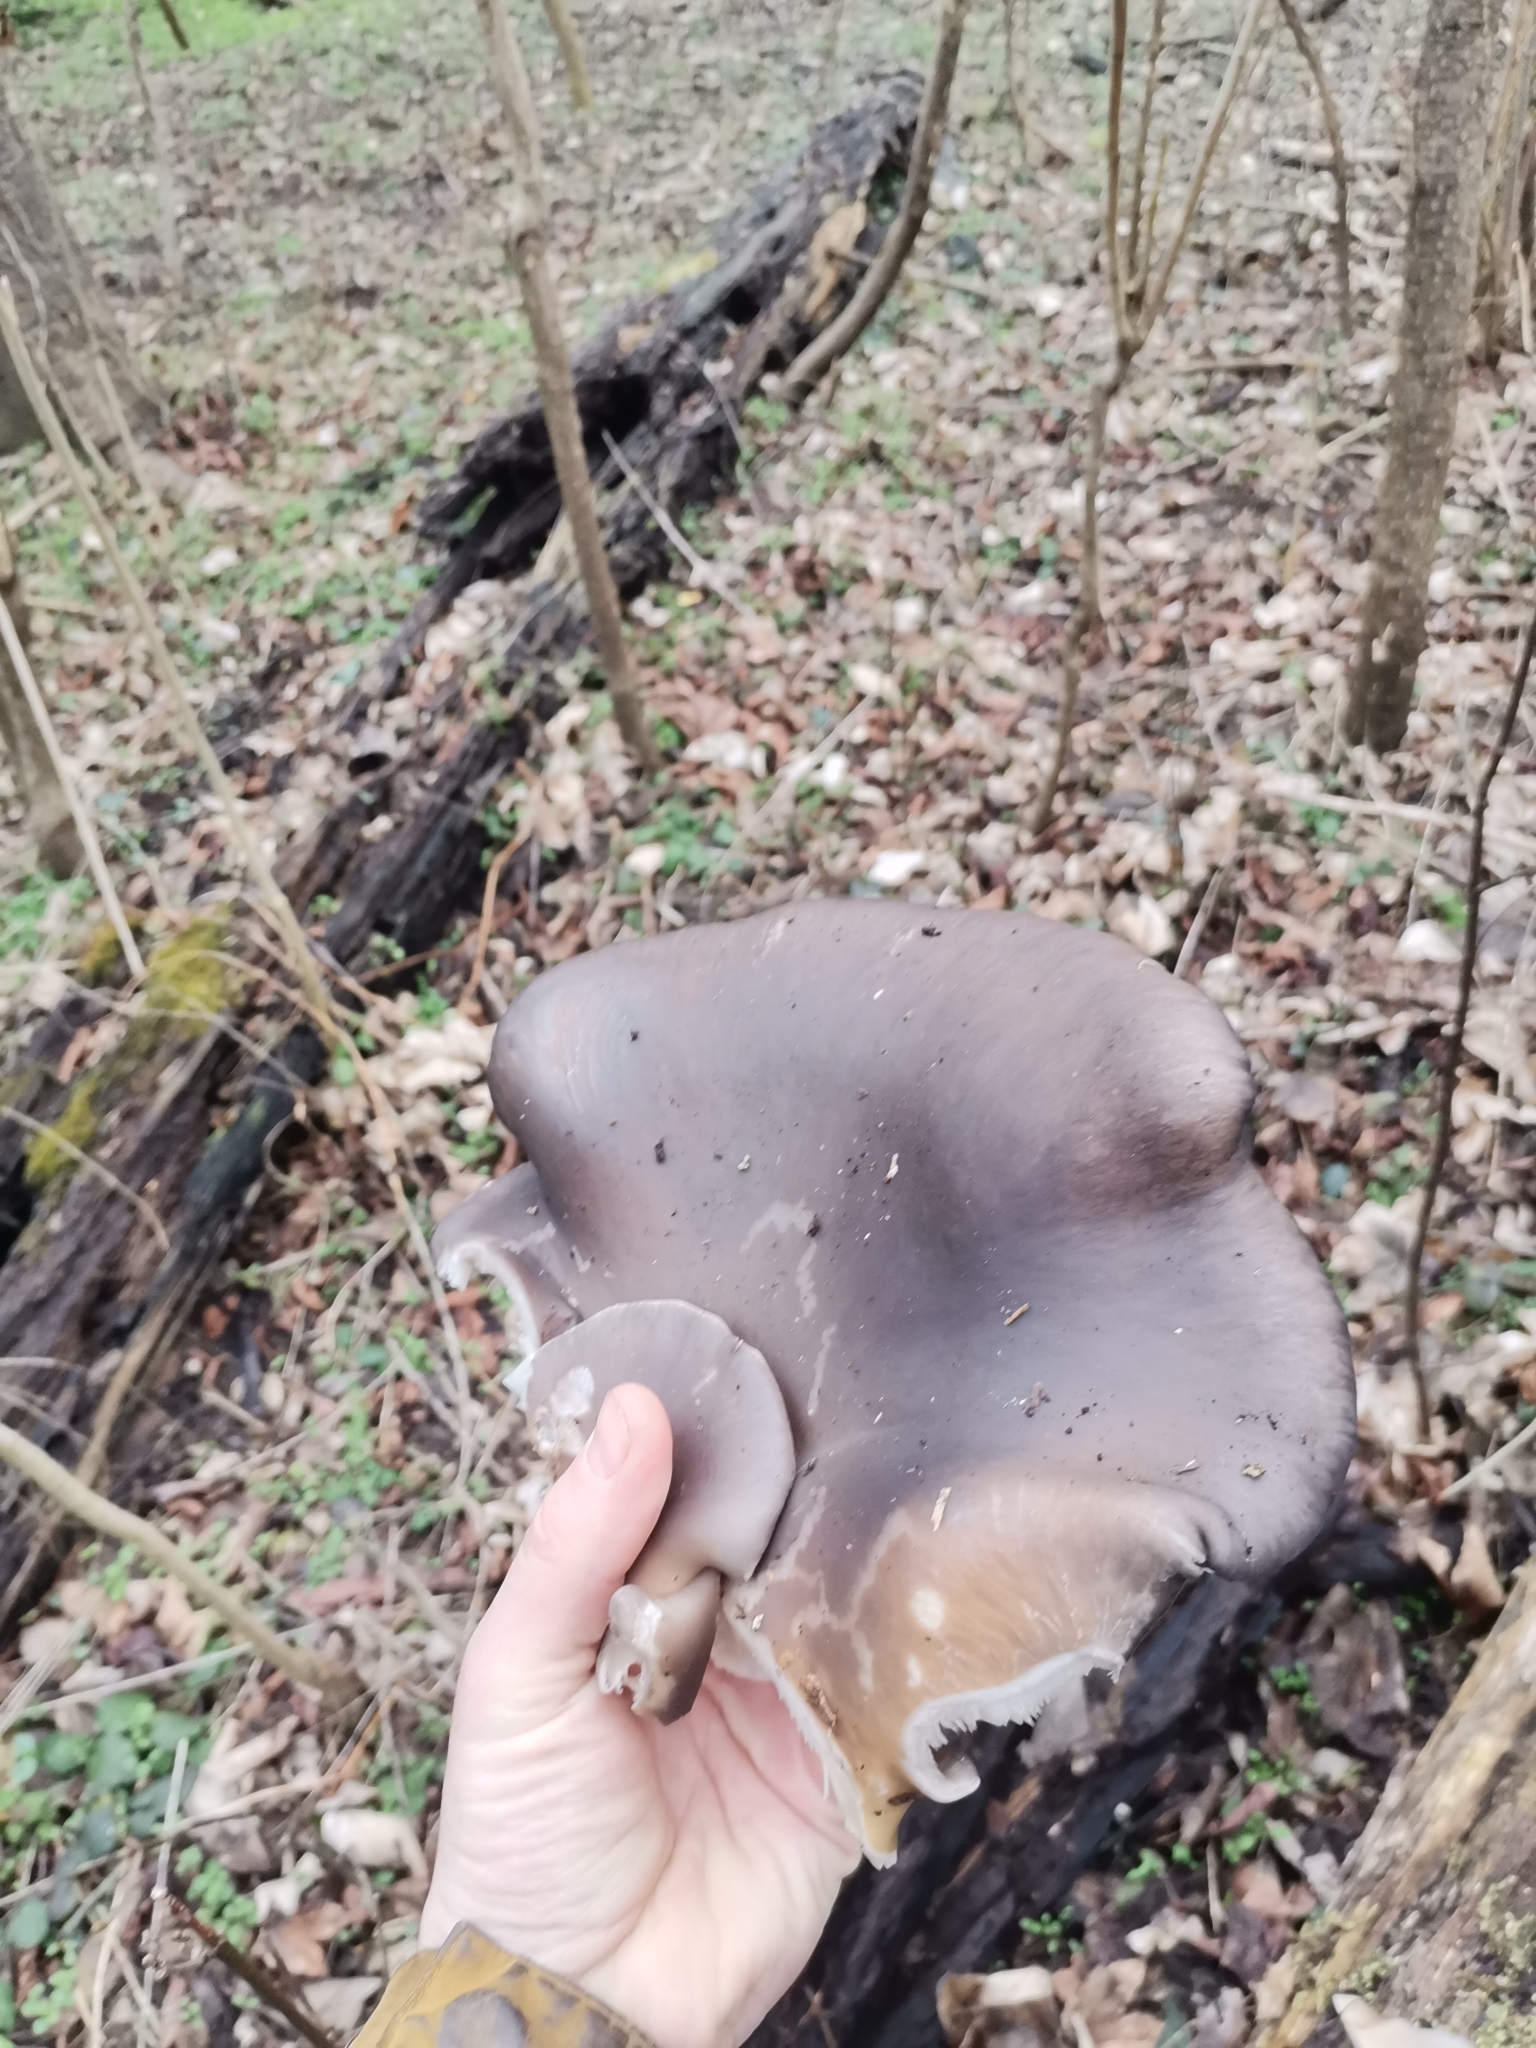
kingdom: Fungi
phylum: Basidiomycota
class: Agaricomycetes
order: Agaricales
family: Pleurotaceae
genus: Pleurotus
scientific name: Pleurotus ostreatus
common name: Oyster mushroom
